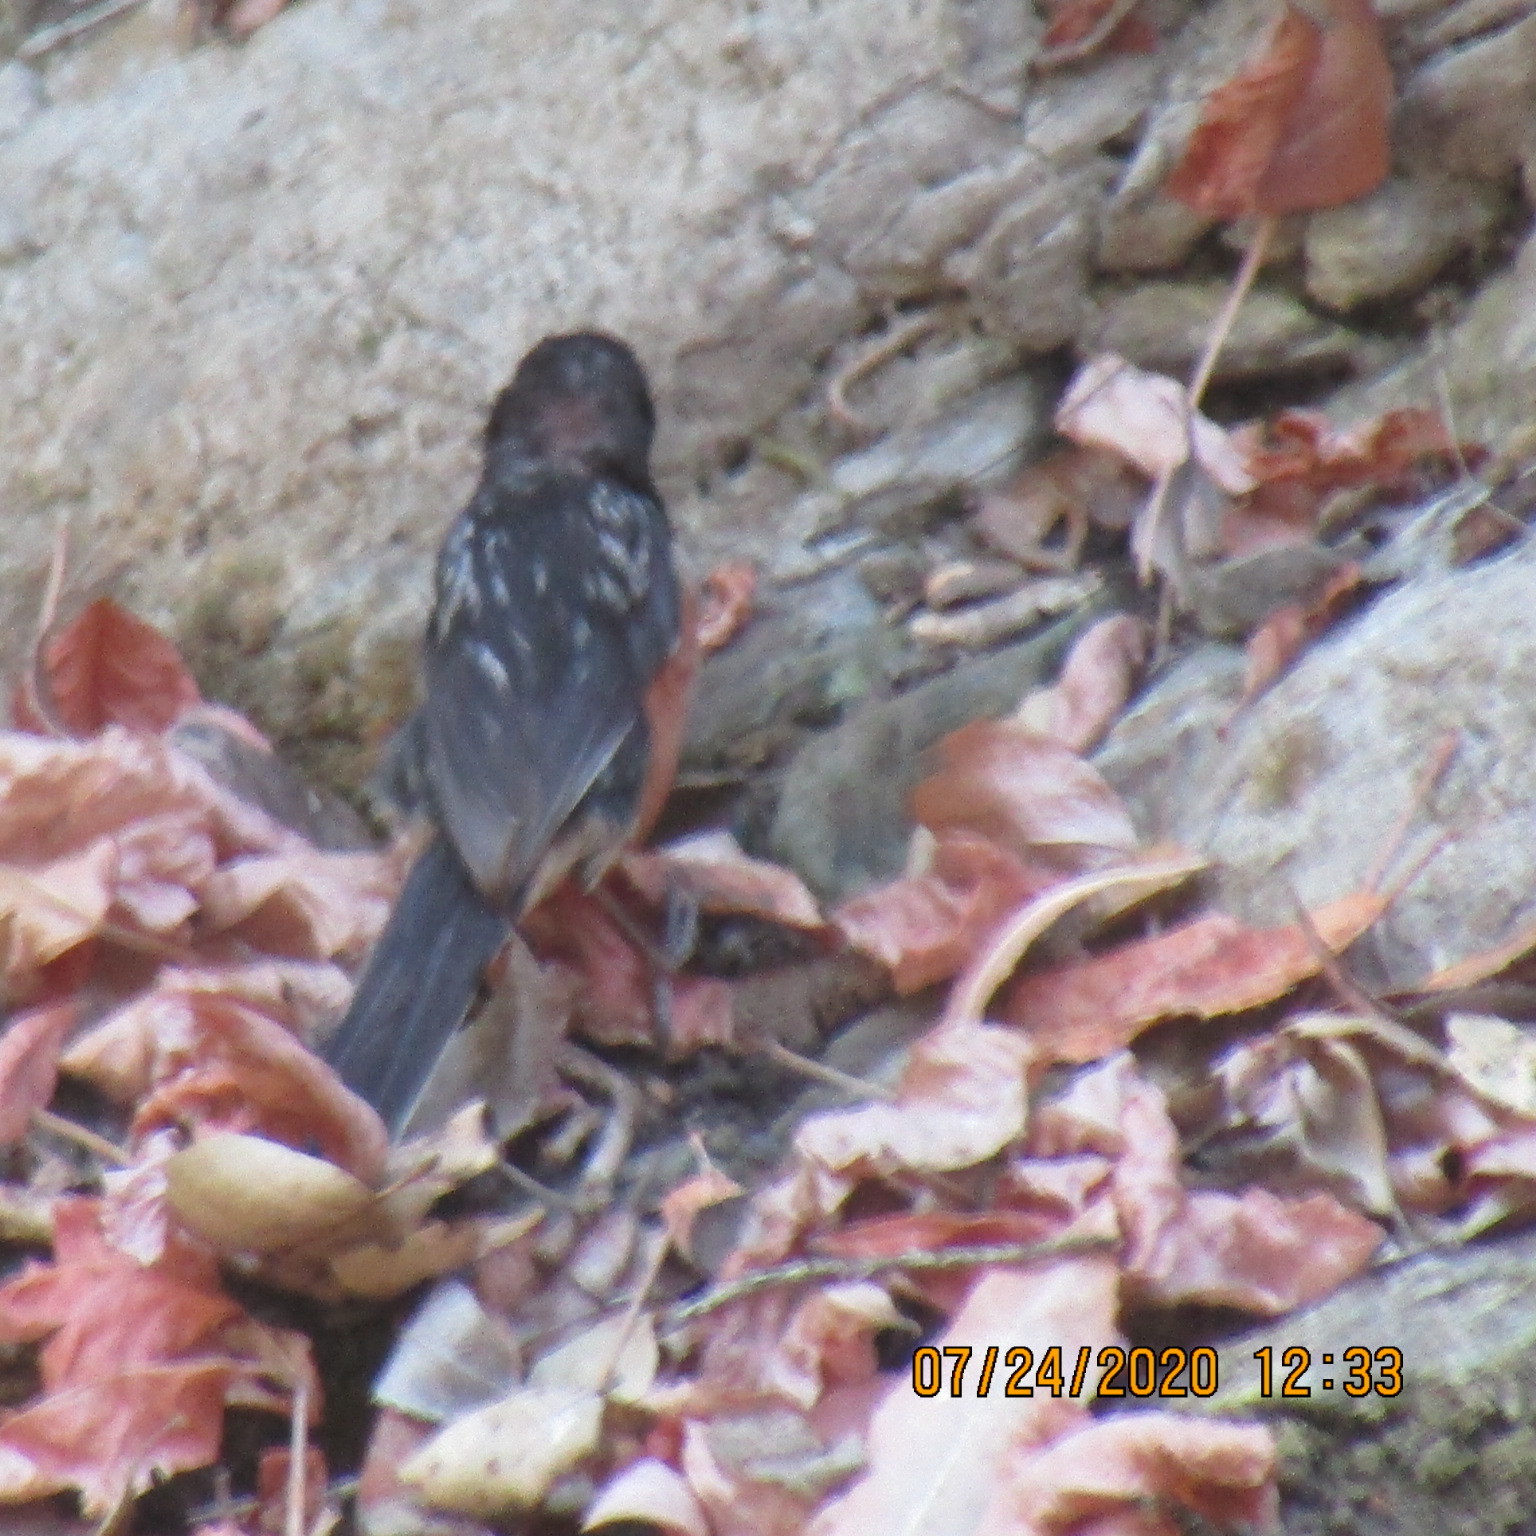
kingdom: Animalia
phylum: Chordata
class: Aves
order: Passeriformes
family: Passerellidae
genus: Pipilo
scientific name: Pipilo maculatus
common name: Spotted towhee
